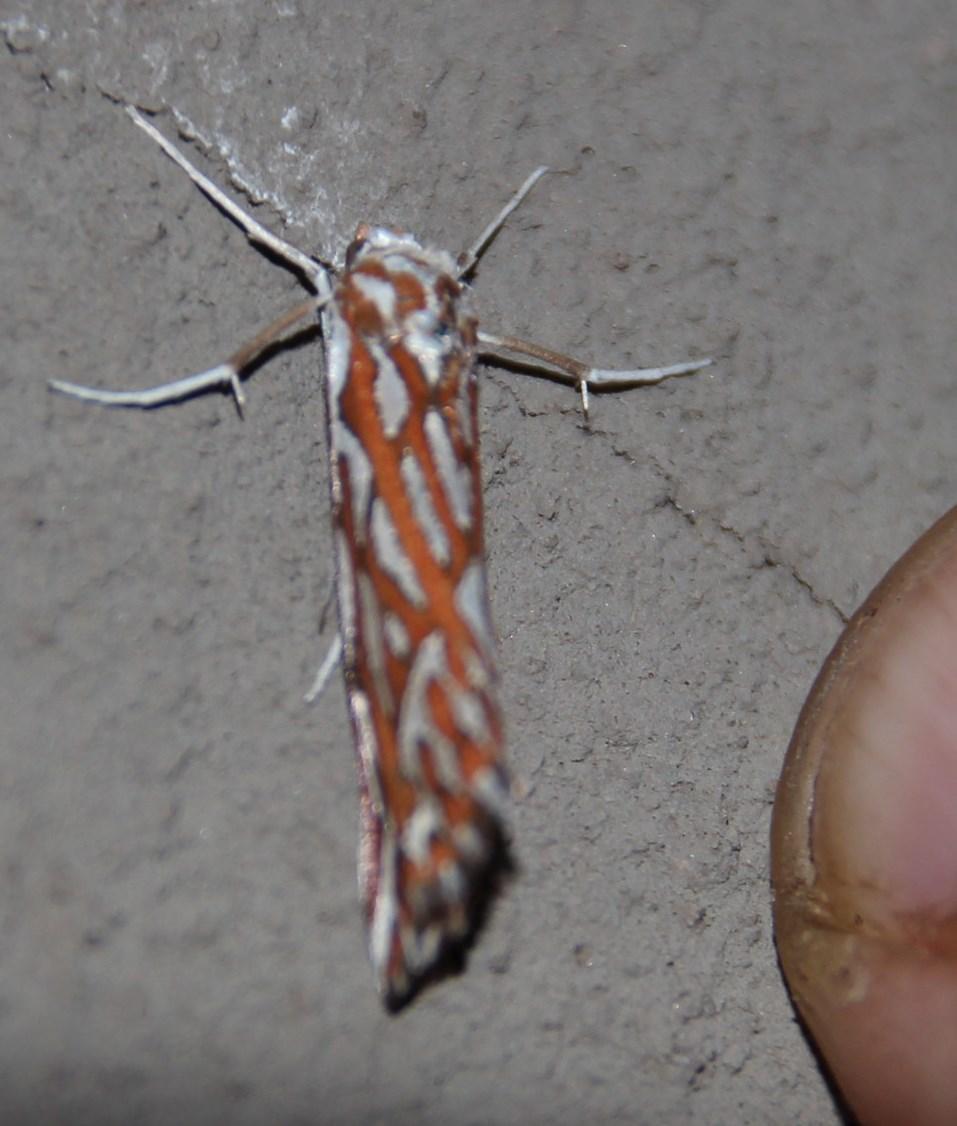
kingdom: Animalia
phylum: Arthropoda
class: Insecta
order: Lepidoptera
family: Geometridae
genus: Argyrophora
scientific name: Argyrophora trofonia
